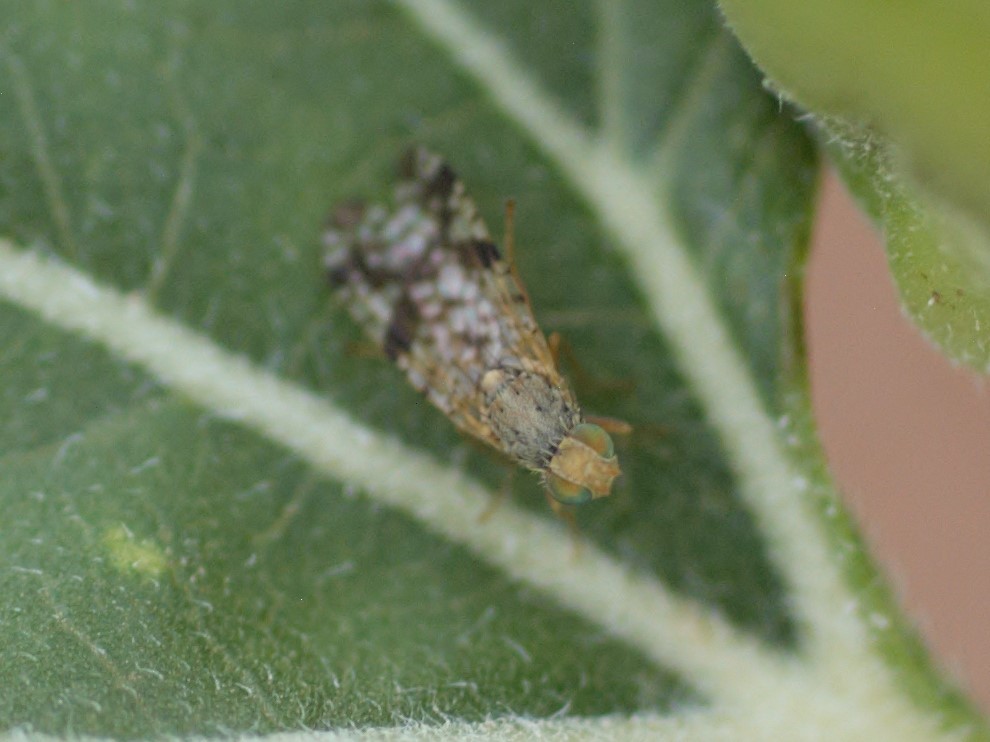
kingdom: Animalia
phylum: Arthropoda
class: Insecta
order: Diptera
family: Tephritidae
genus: Neotephritis
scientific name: Neotephritis finalis
